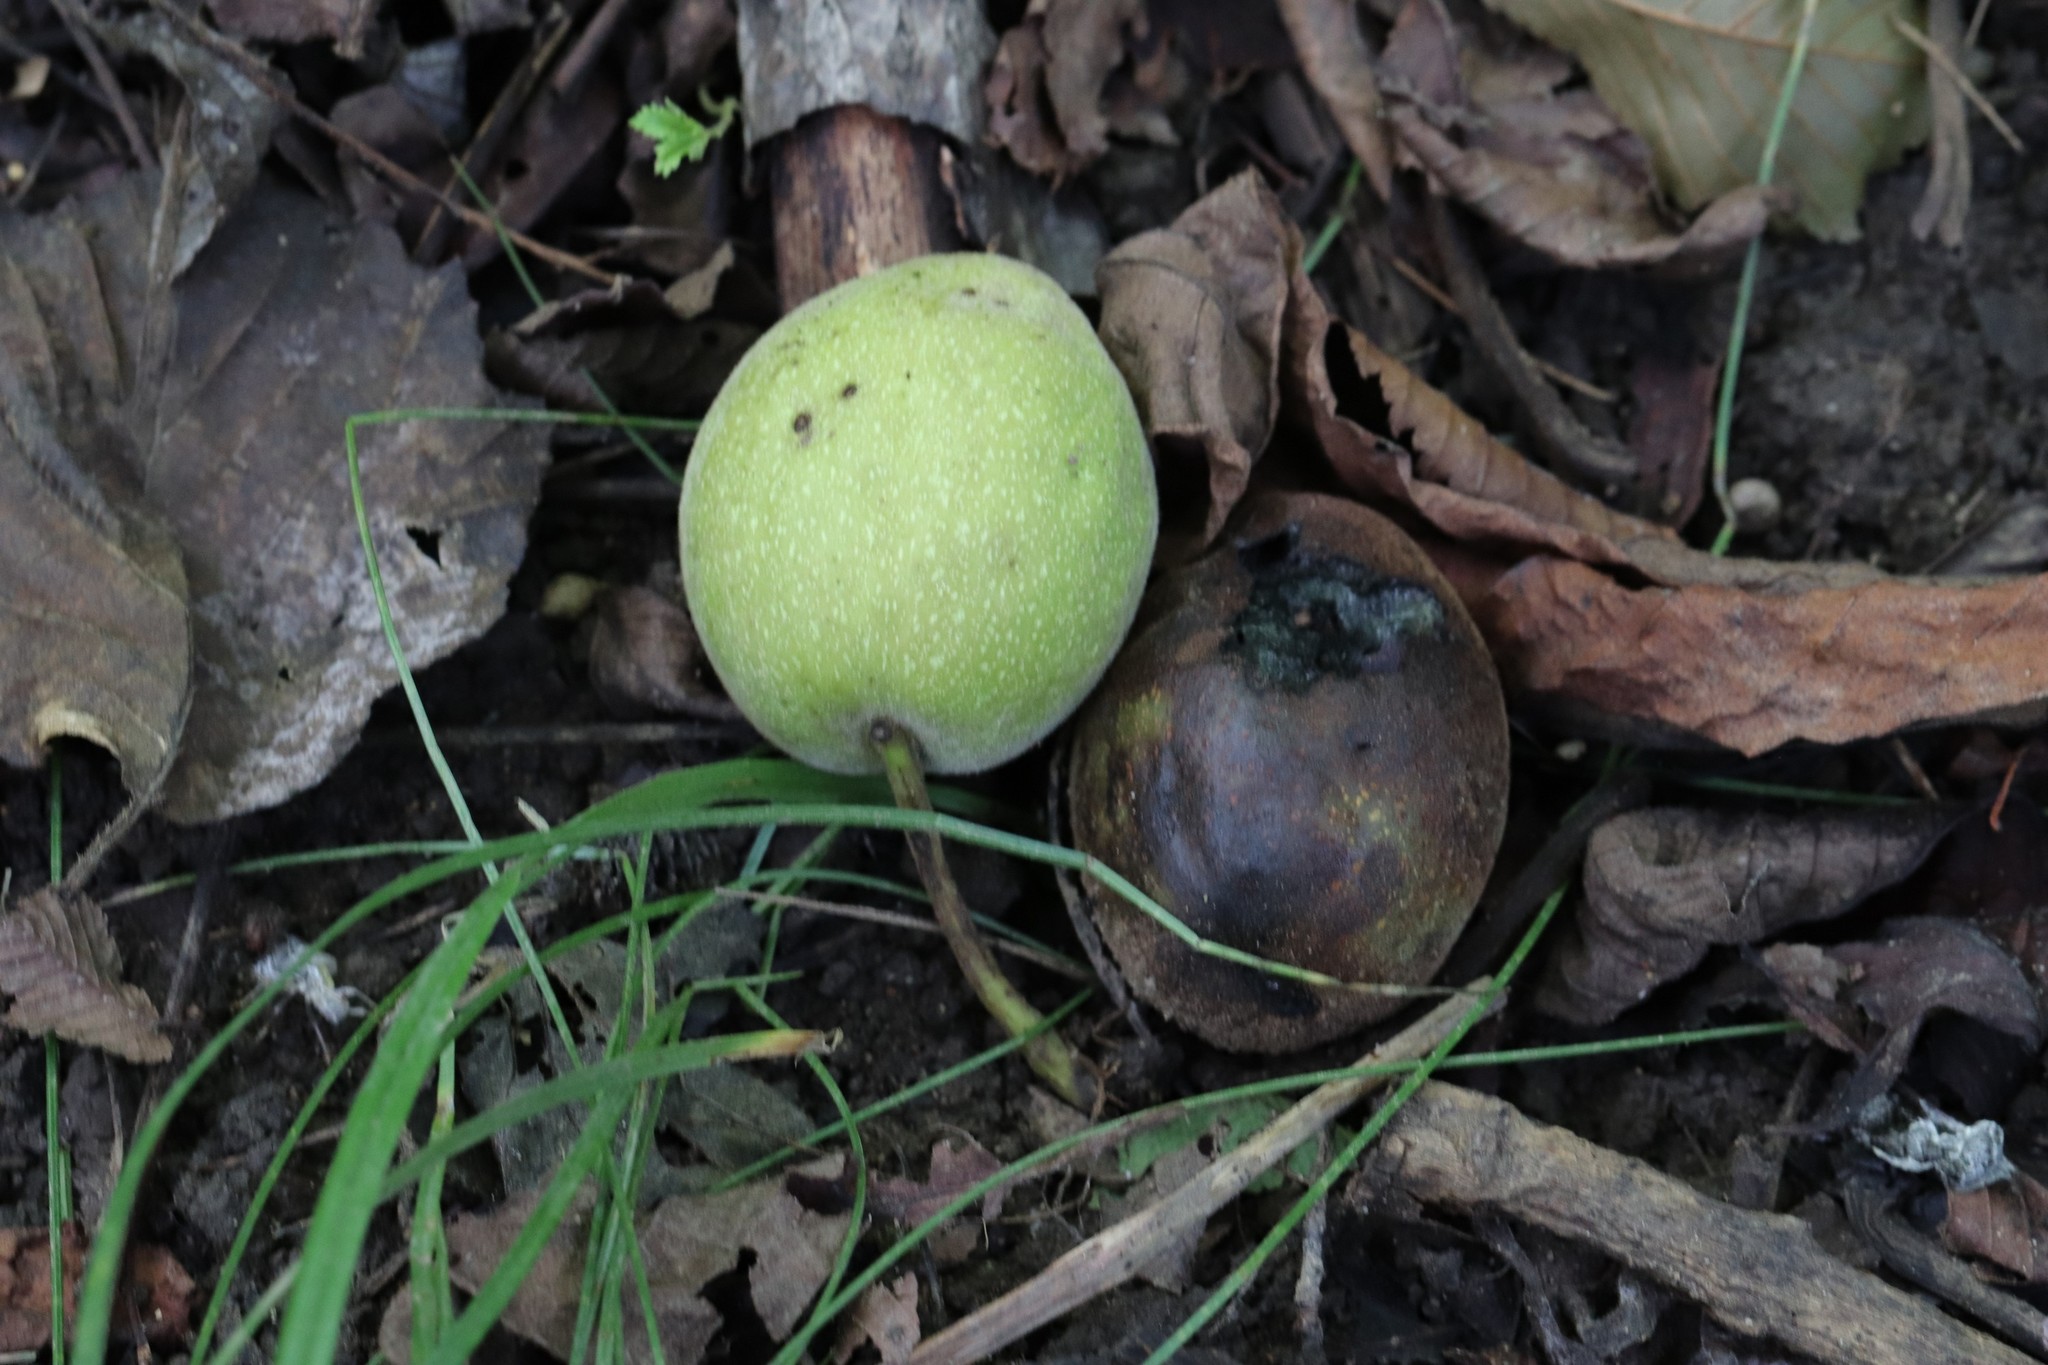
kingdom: Plantae
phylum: Tracheophyta
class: Magnoliopsida
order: Fagales
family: Juglandaceae
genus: Juglans
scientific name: Juglans mandshurica
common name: Manchurian walnut
